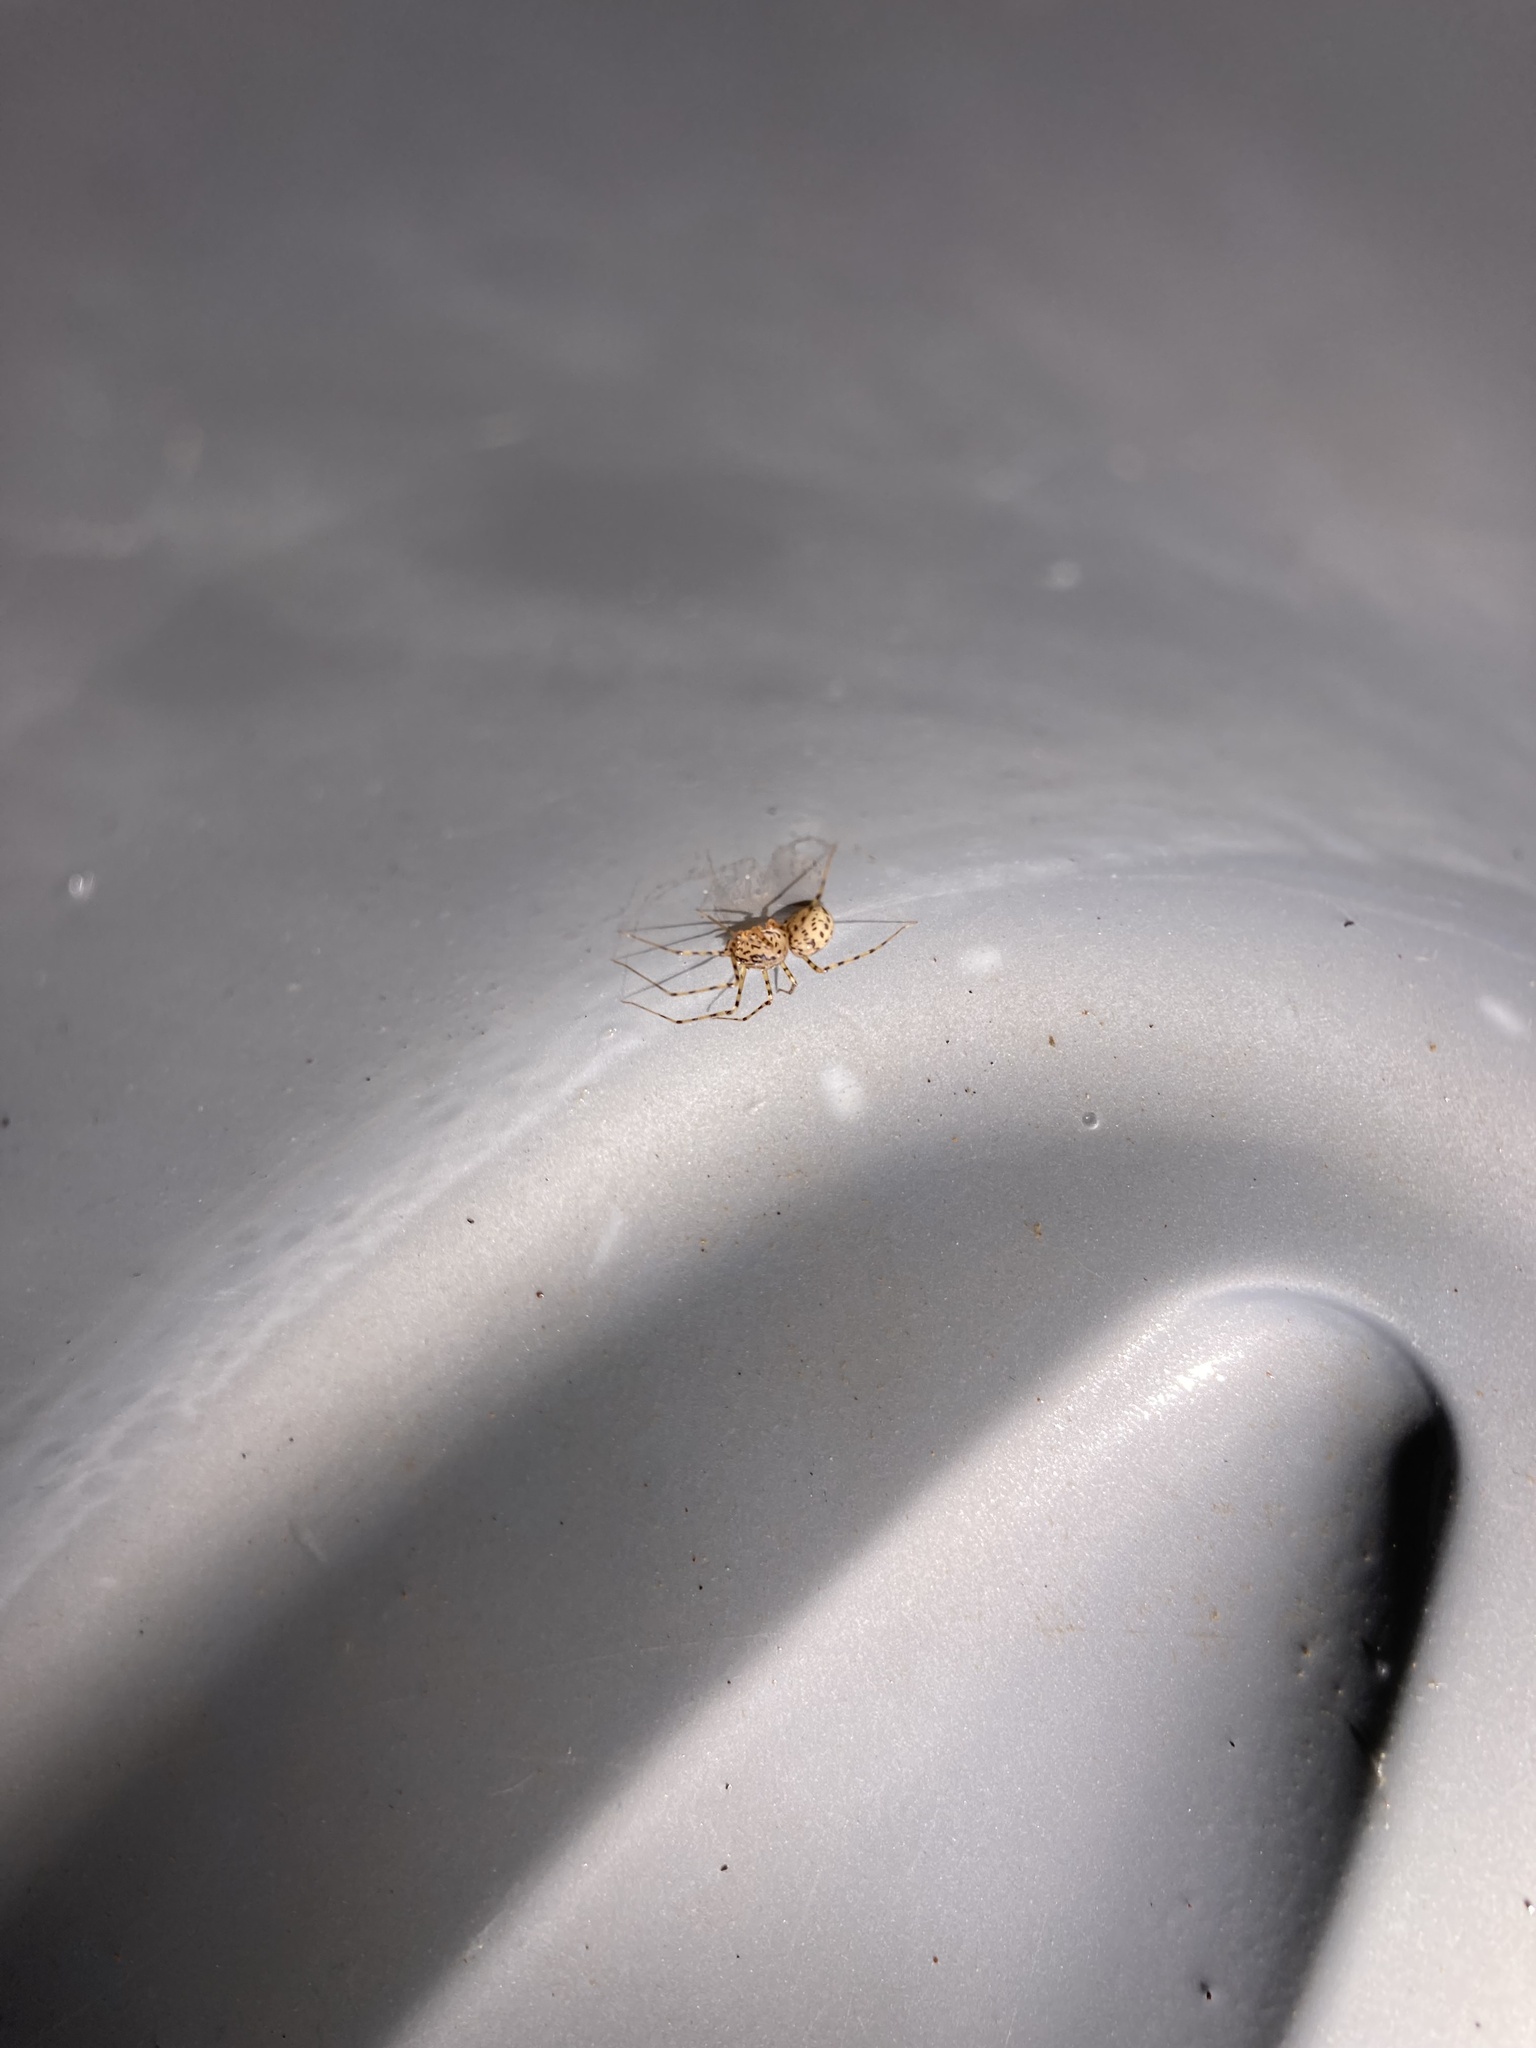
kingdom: Animalia
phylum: Arthropoda
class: Arachnida
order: Araneae
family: Scytodidae
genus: Scytodes
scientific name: Scytodes thoracica
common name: Spitting spider
